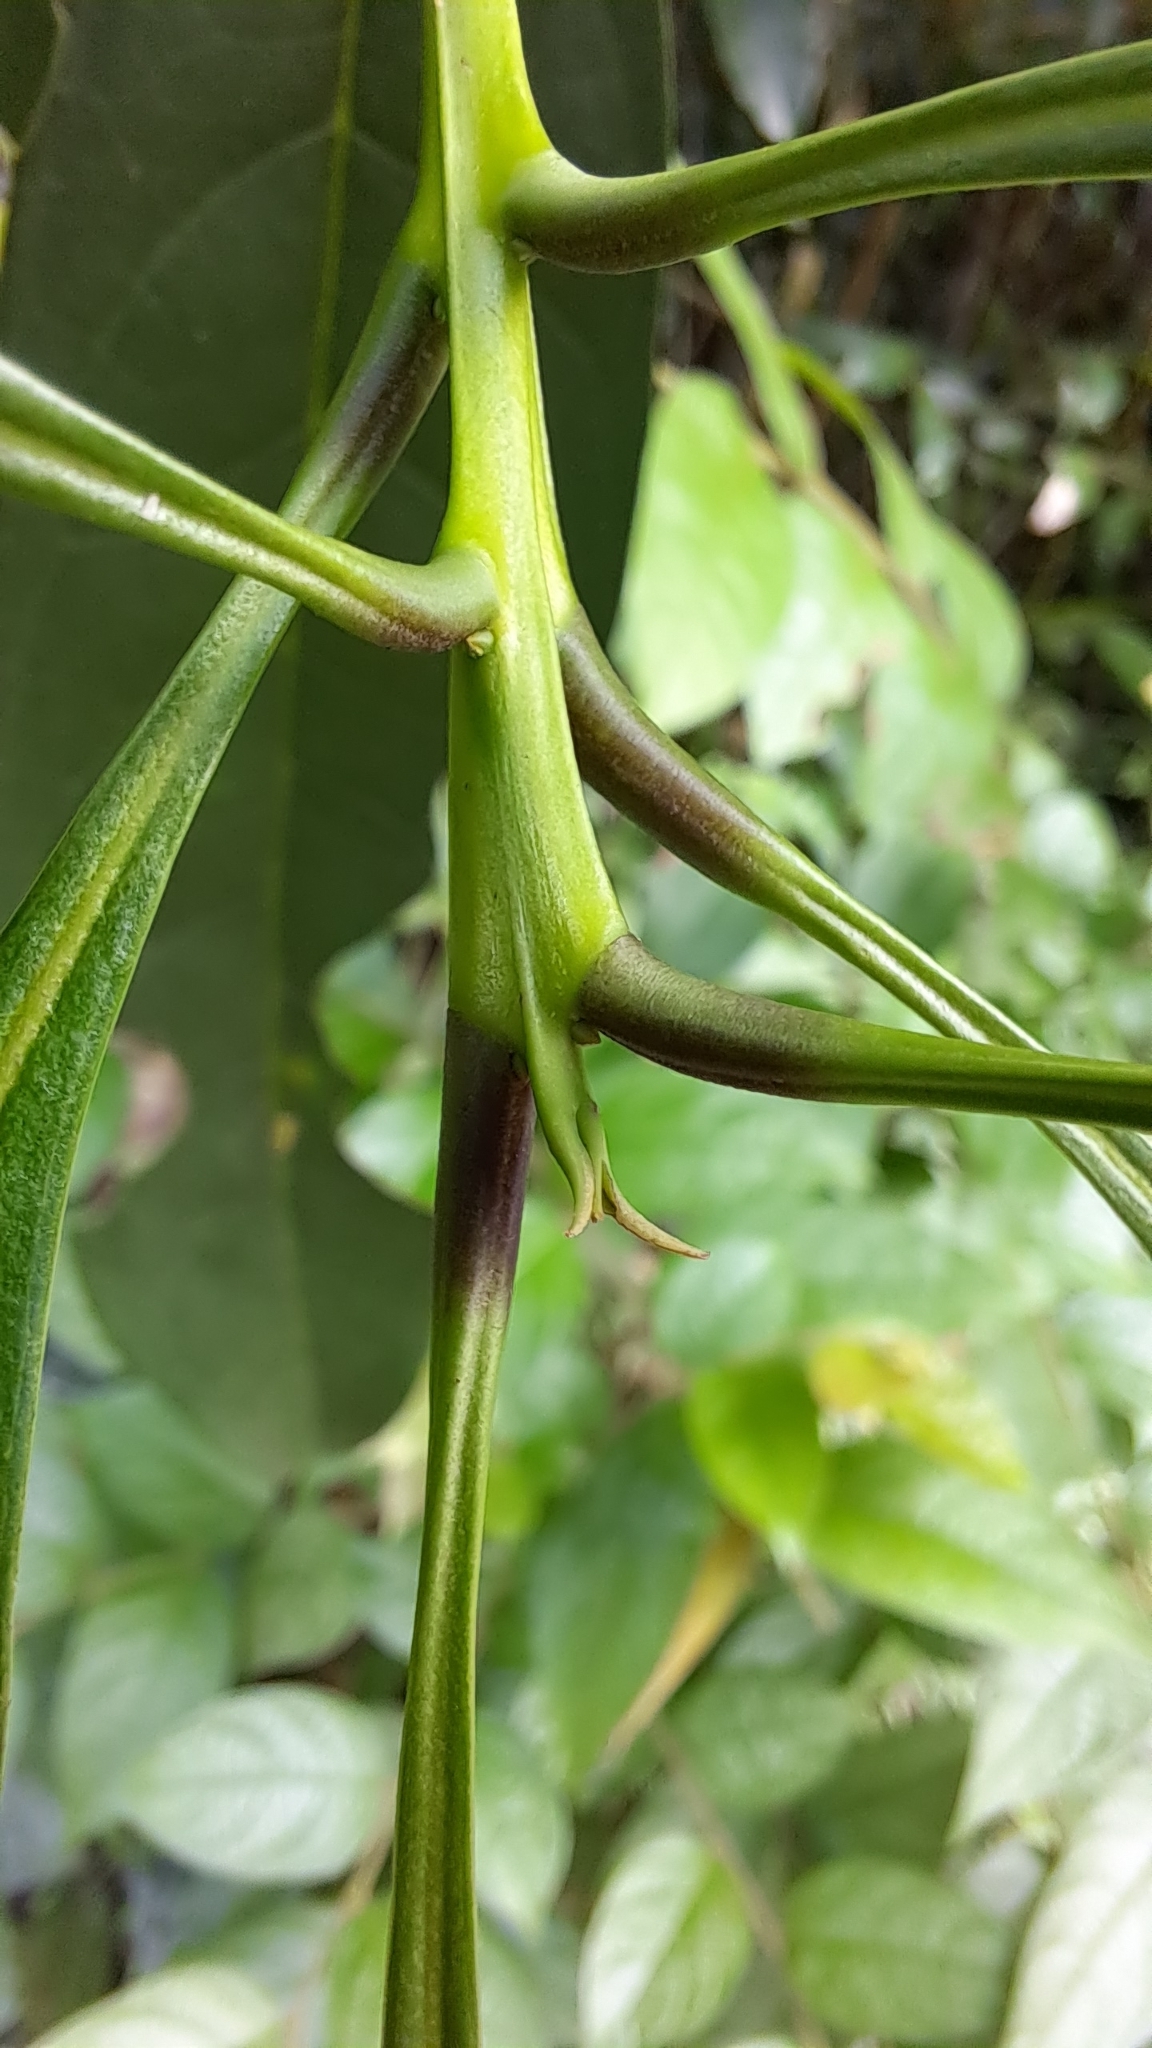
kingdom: Plantae
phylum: Tracheophyta
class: Magnoliopsida
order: Lamiales
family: Oleaceae
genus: Chengiodendron
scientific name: Chengiodendron matsumuranum
